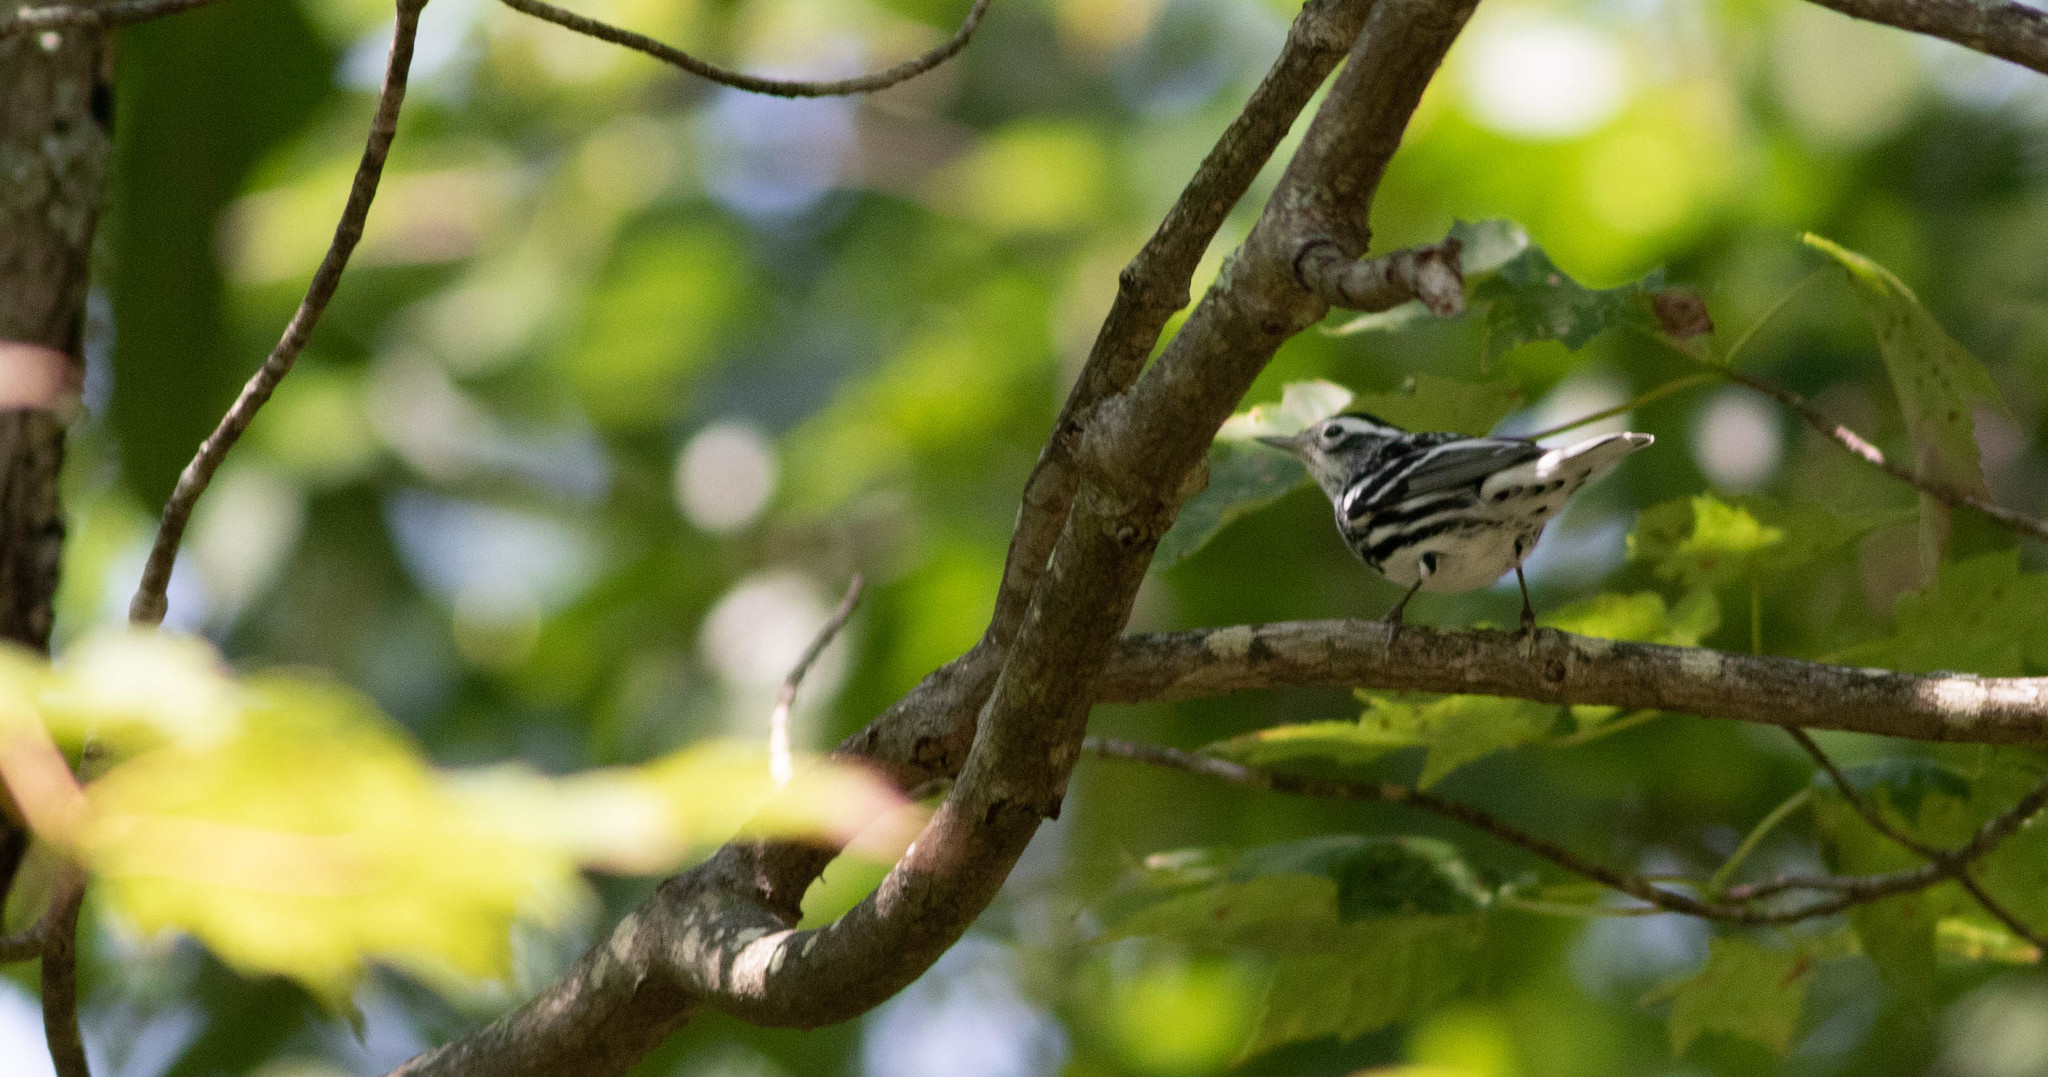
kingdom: Animalia
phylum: Chordata
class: Aves
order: Passeriformes
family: Parulidae
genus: Mniotilta
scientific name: Mniotilta varia
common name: Black-and-white warbler
